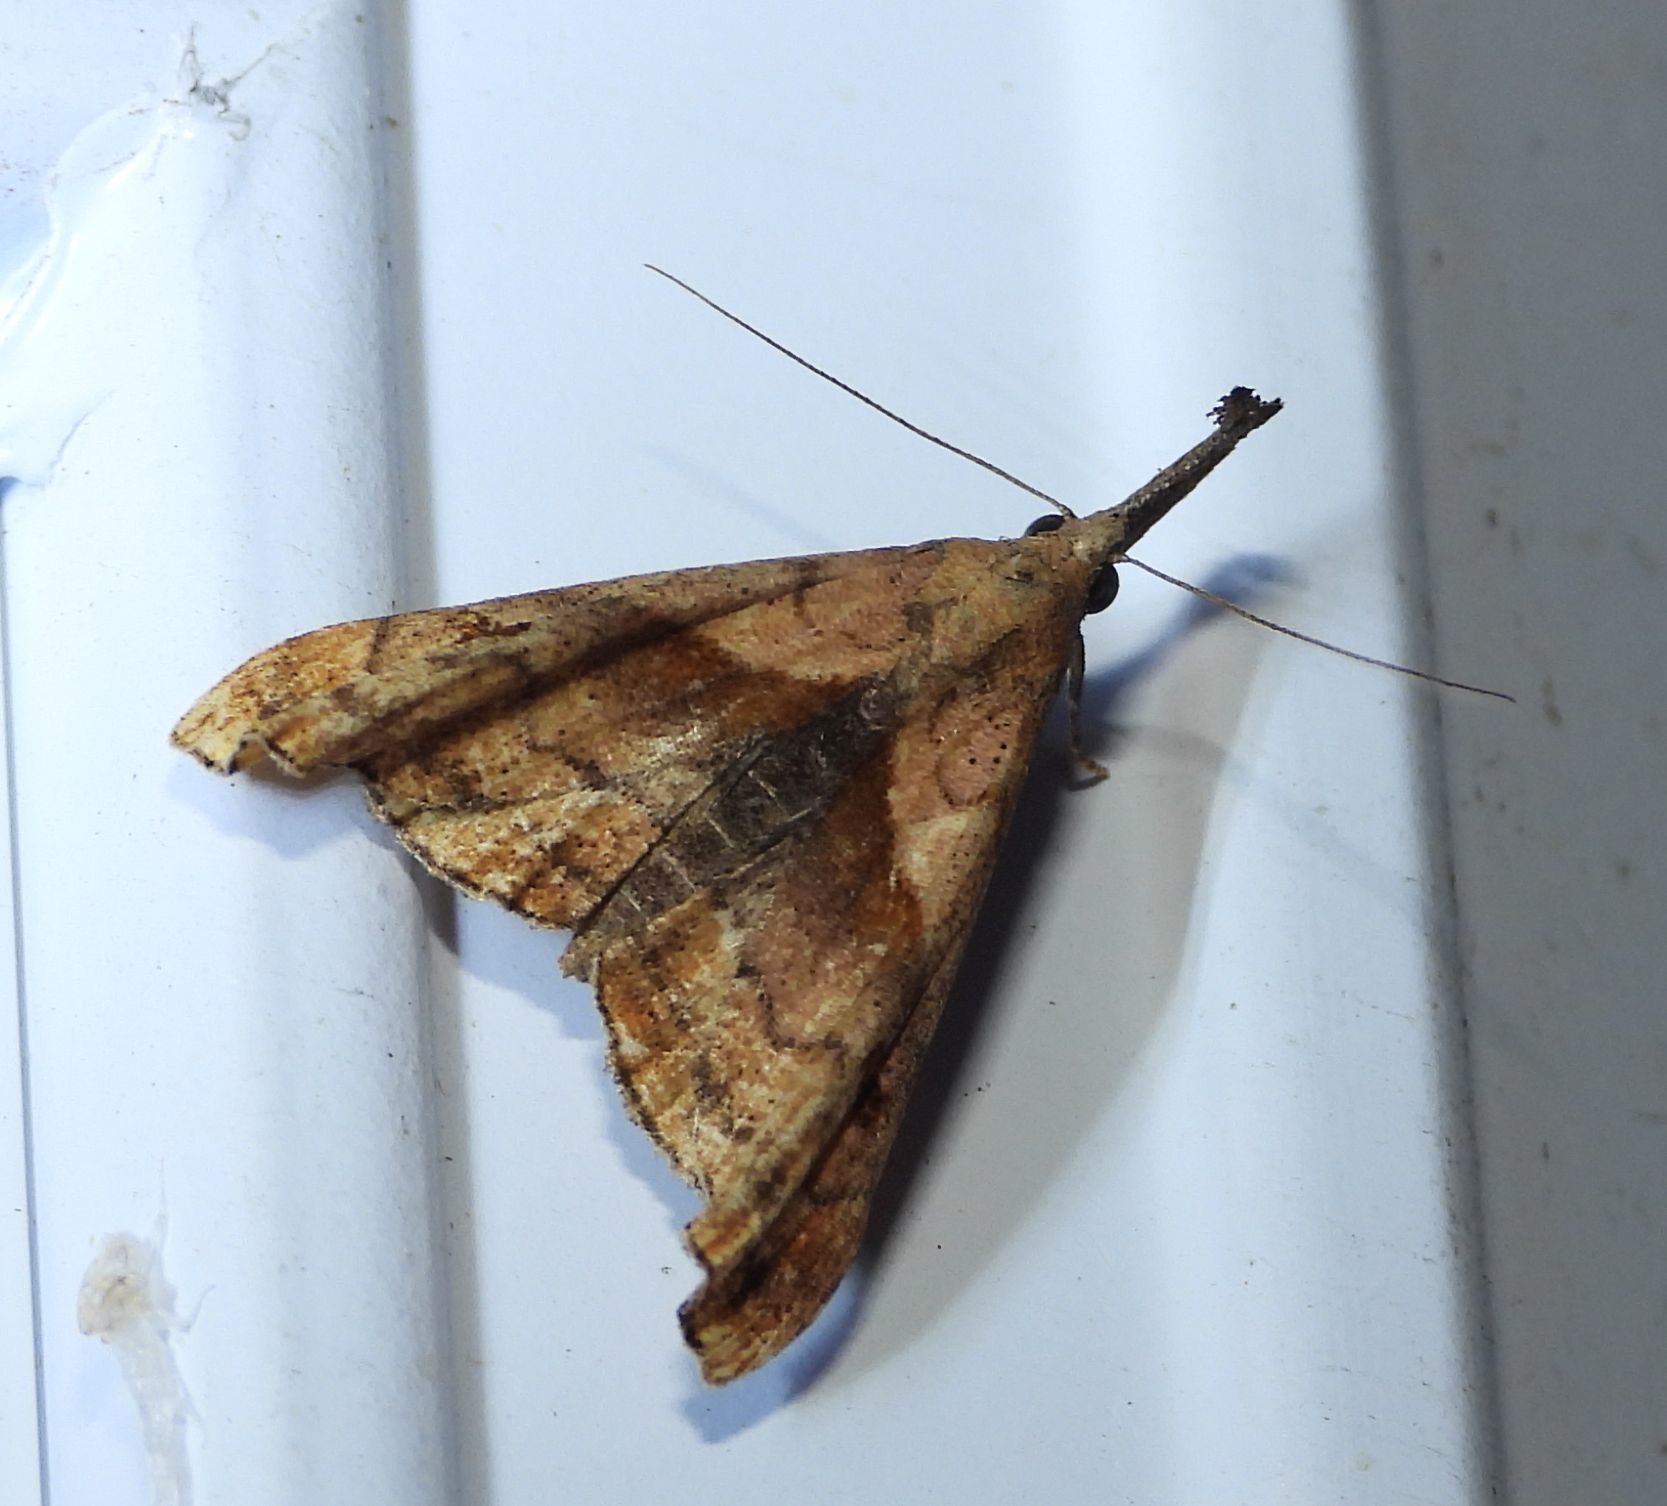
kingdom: Animalia
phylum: Arthropoda
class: Insecta
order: Lepidoptera
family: Erebidae
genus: Palthis
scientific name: Palthis angulalis
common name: Dark-spotted palthis moth
